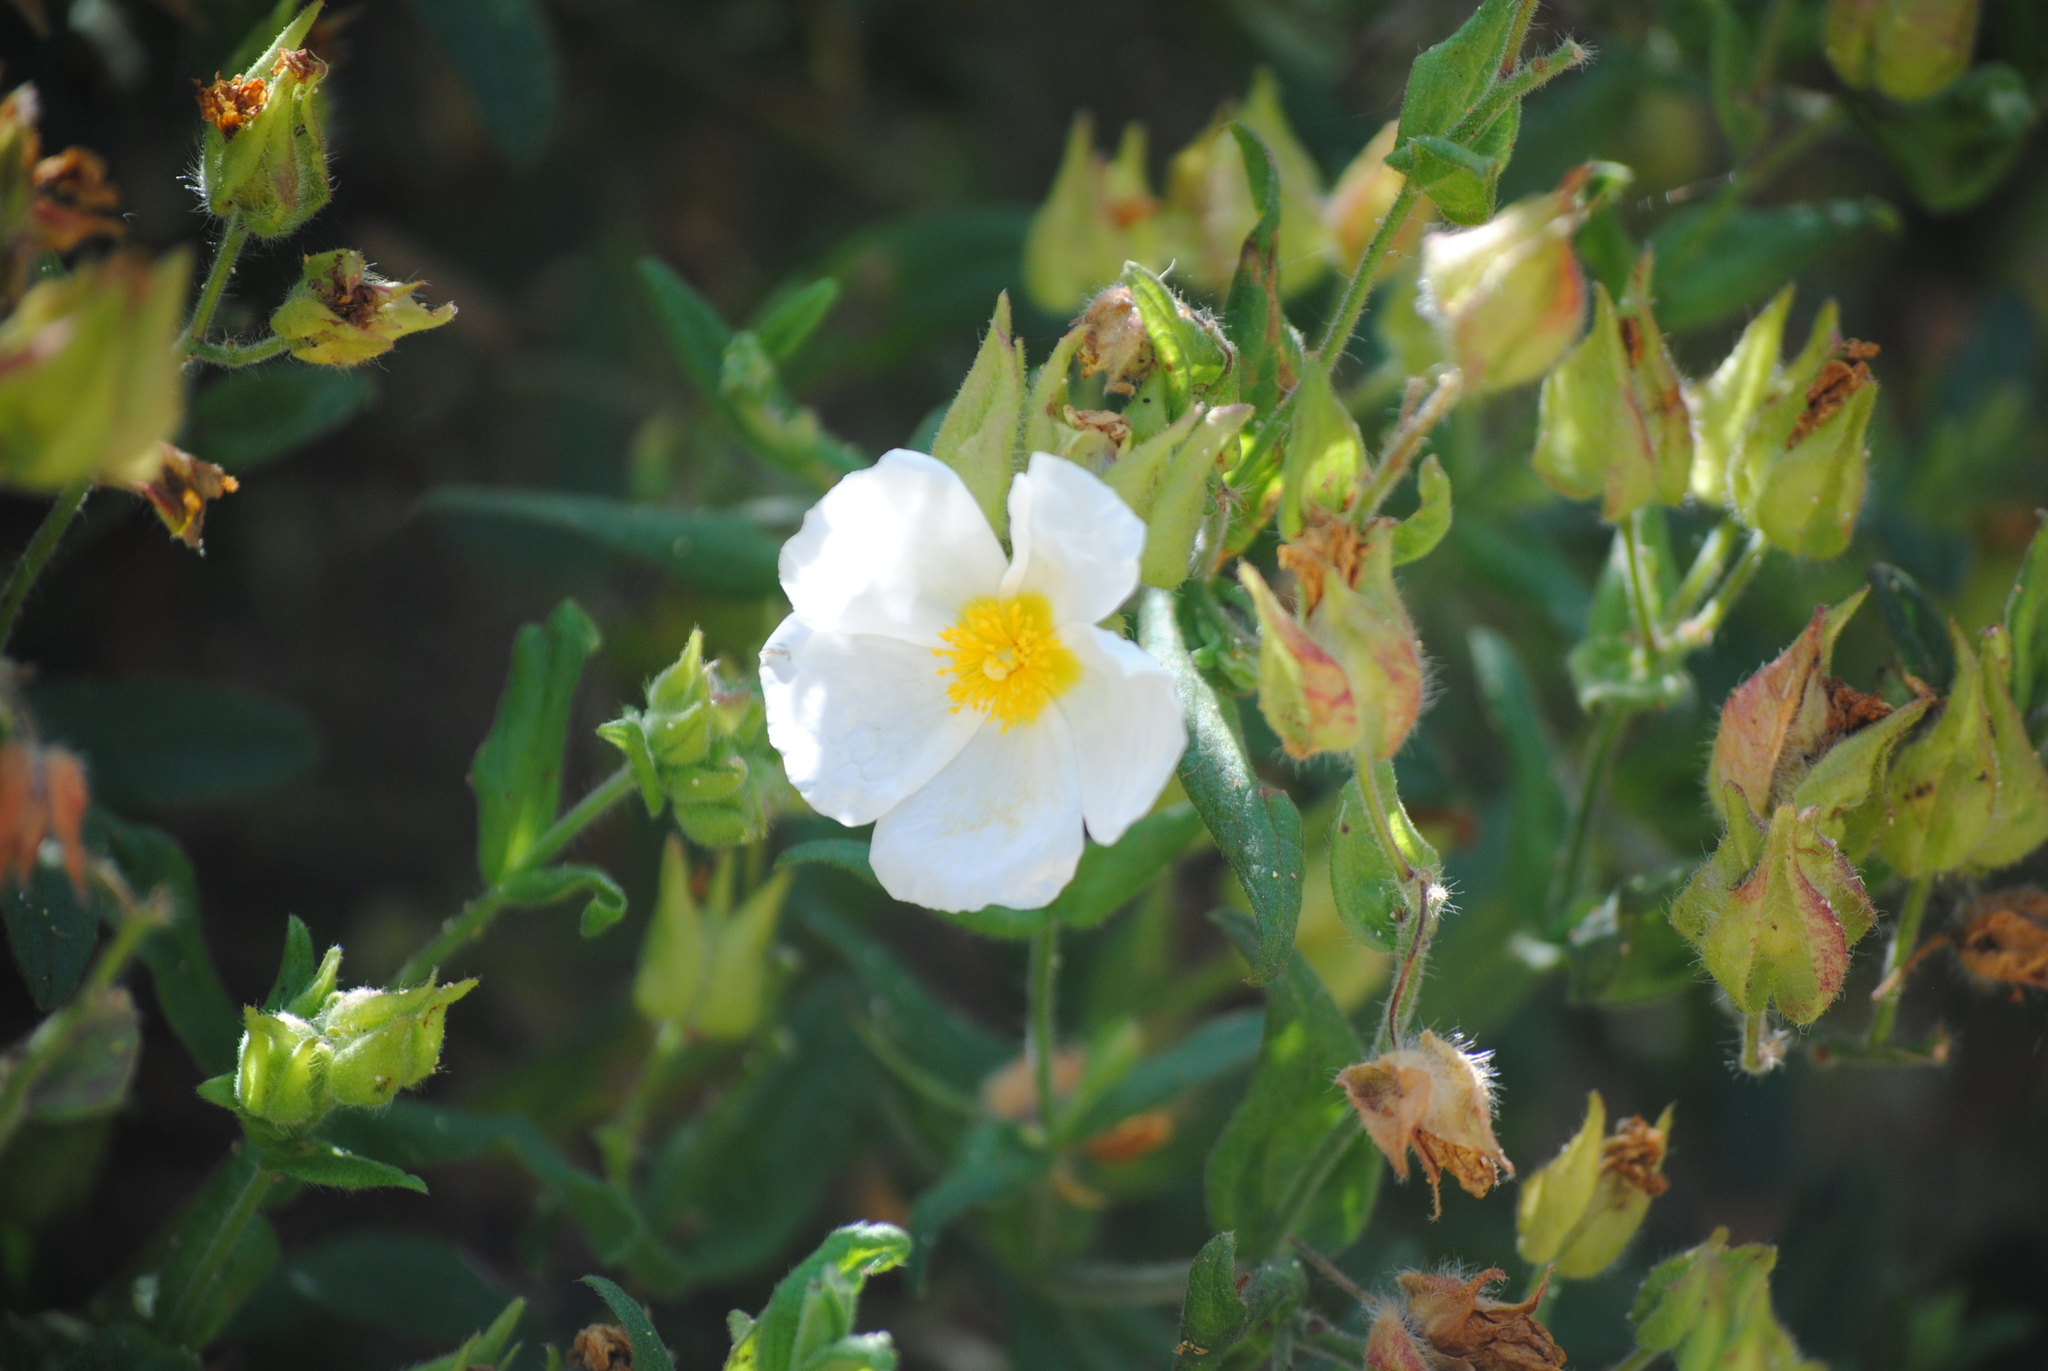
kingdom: Plantae
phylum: Tracheophyta
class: Magnoliopsida
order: Malvales
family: Cistaceae
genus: Cistus
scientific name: Cistus inflatus
